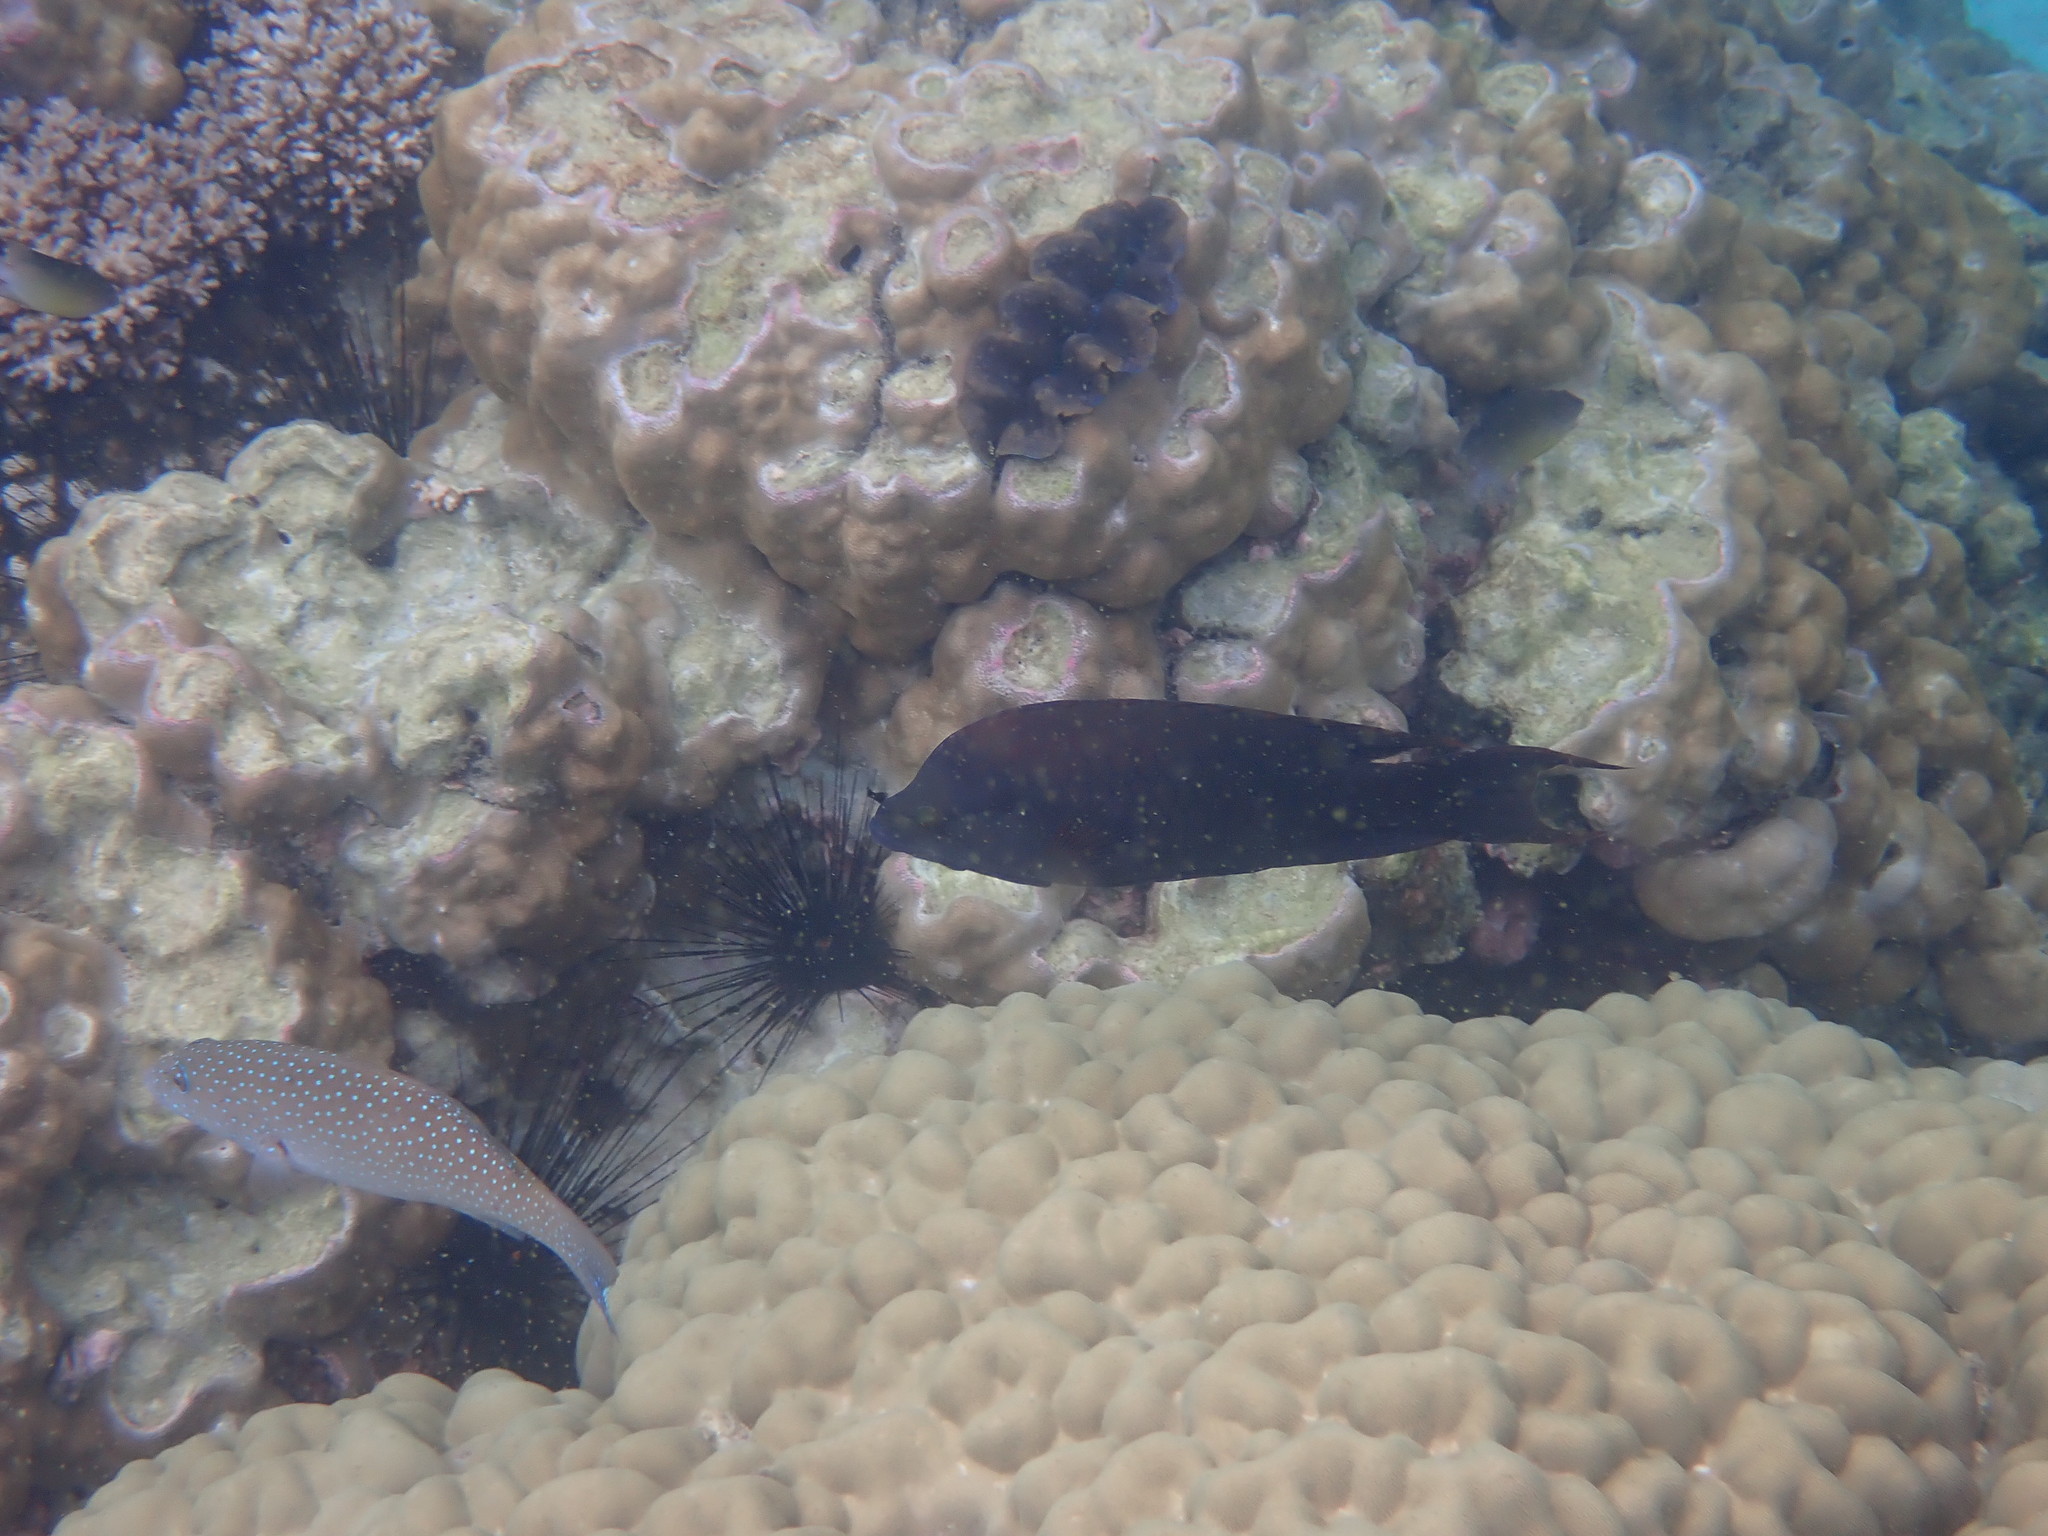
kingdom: Animalia
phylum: Chordata
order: Perciformes
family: Labridae
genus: Epibulus
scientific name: Epibulus insidiator
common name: Slingjaw wrasse
